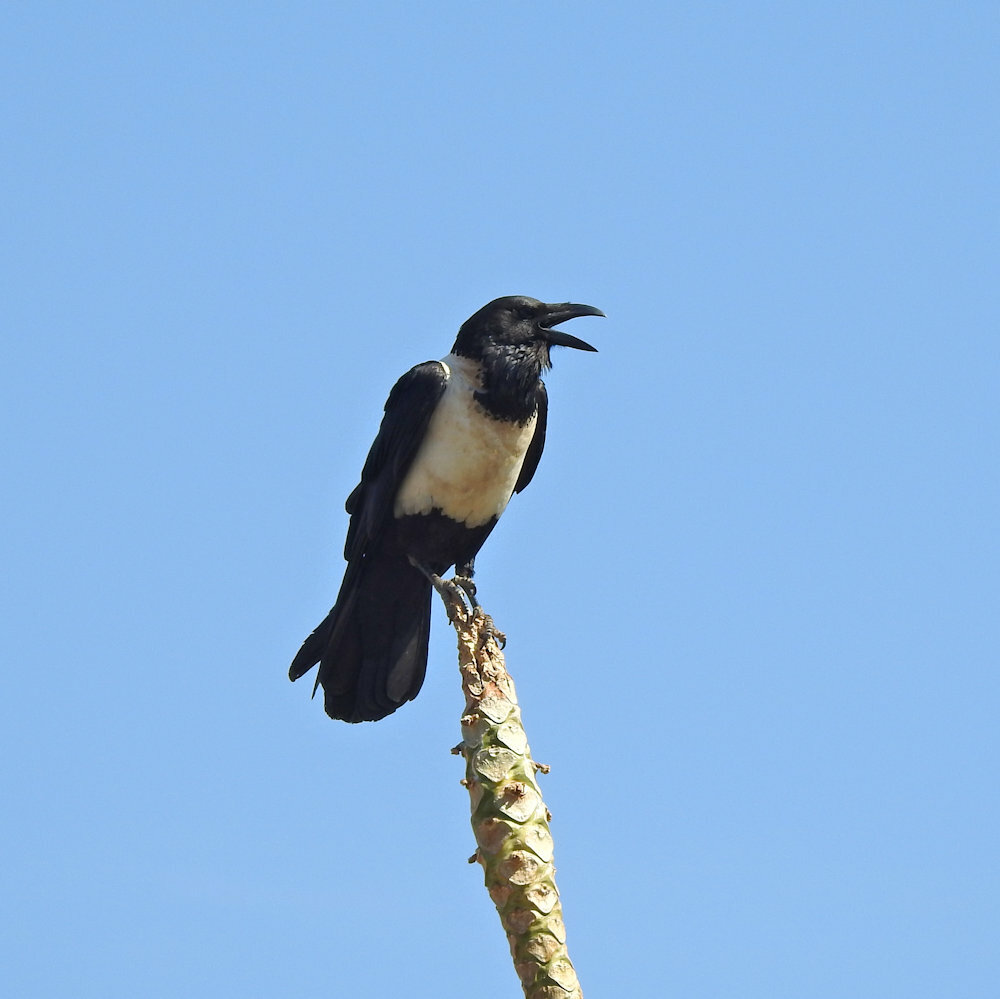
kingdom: Animalia
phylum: Chordata
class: Aves
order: Passeriformes
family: Corvidae
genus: Corvus
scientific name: Corvus albus
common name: Pied crow
